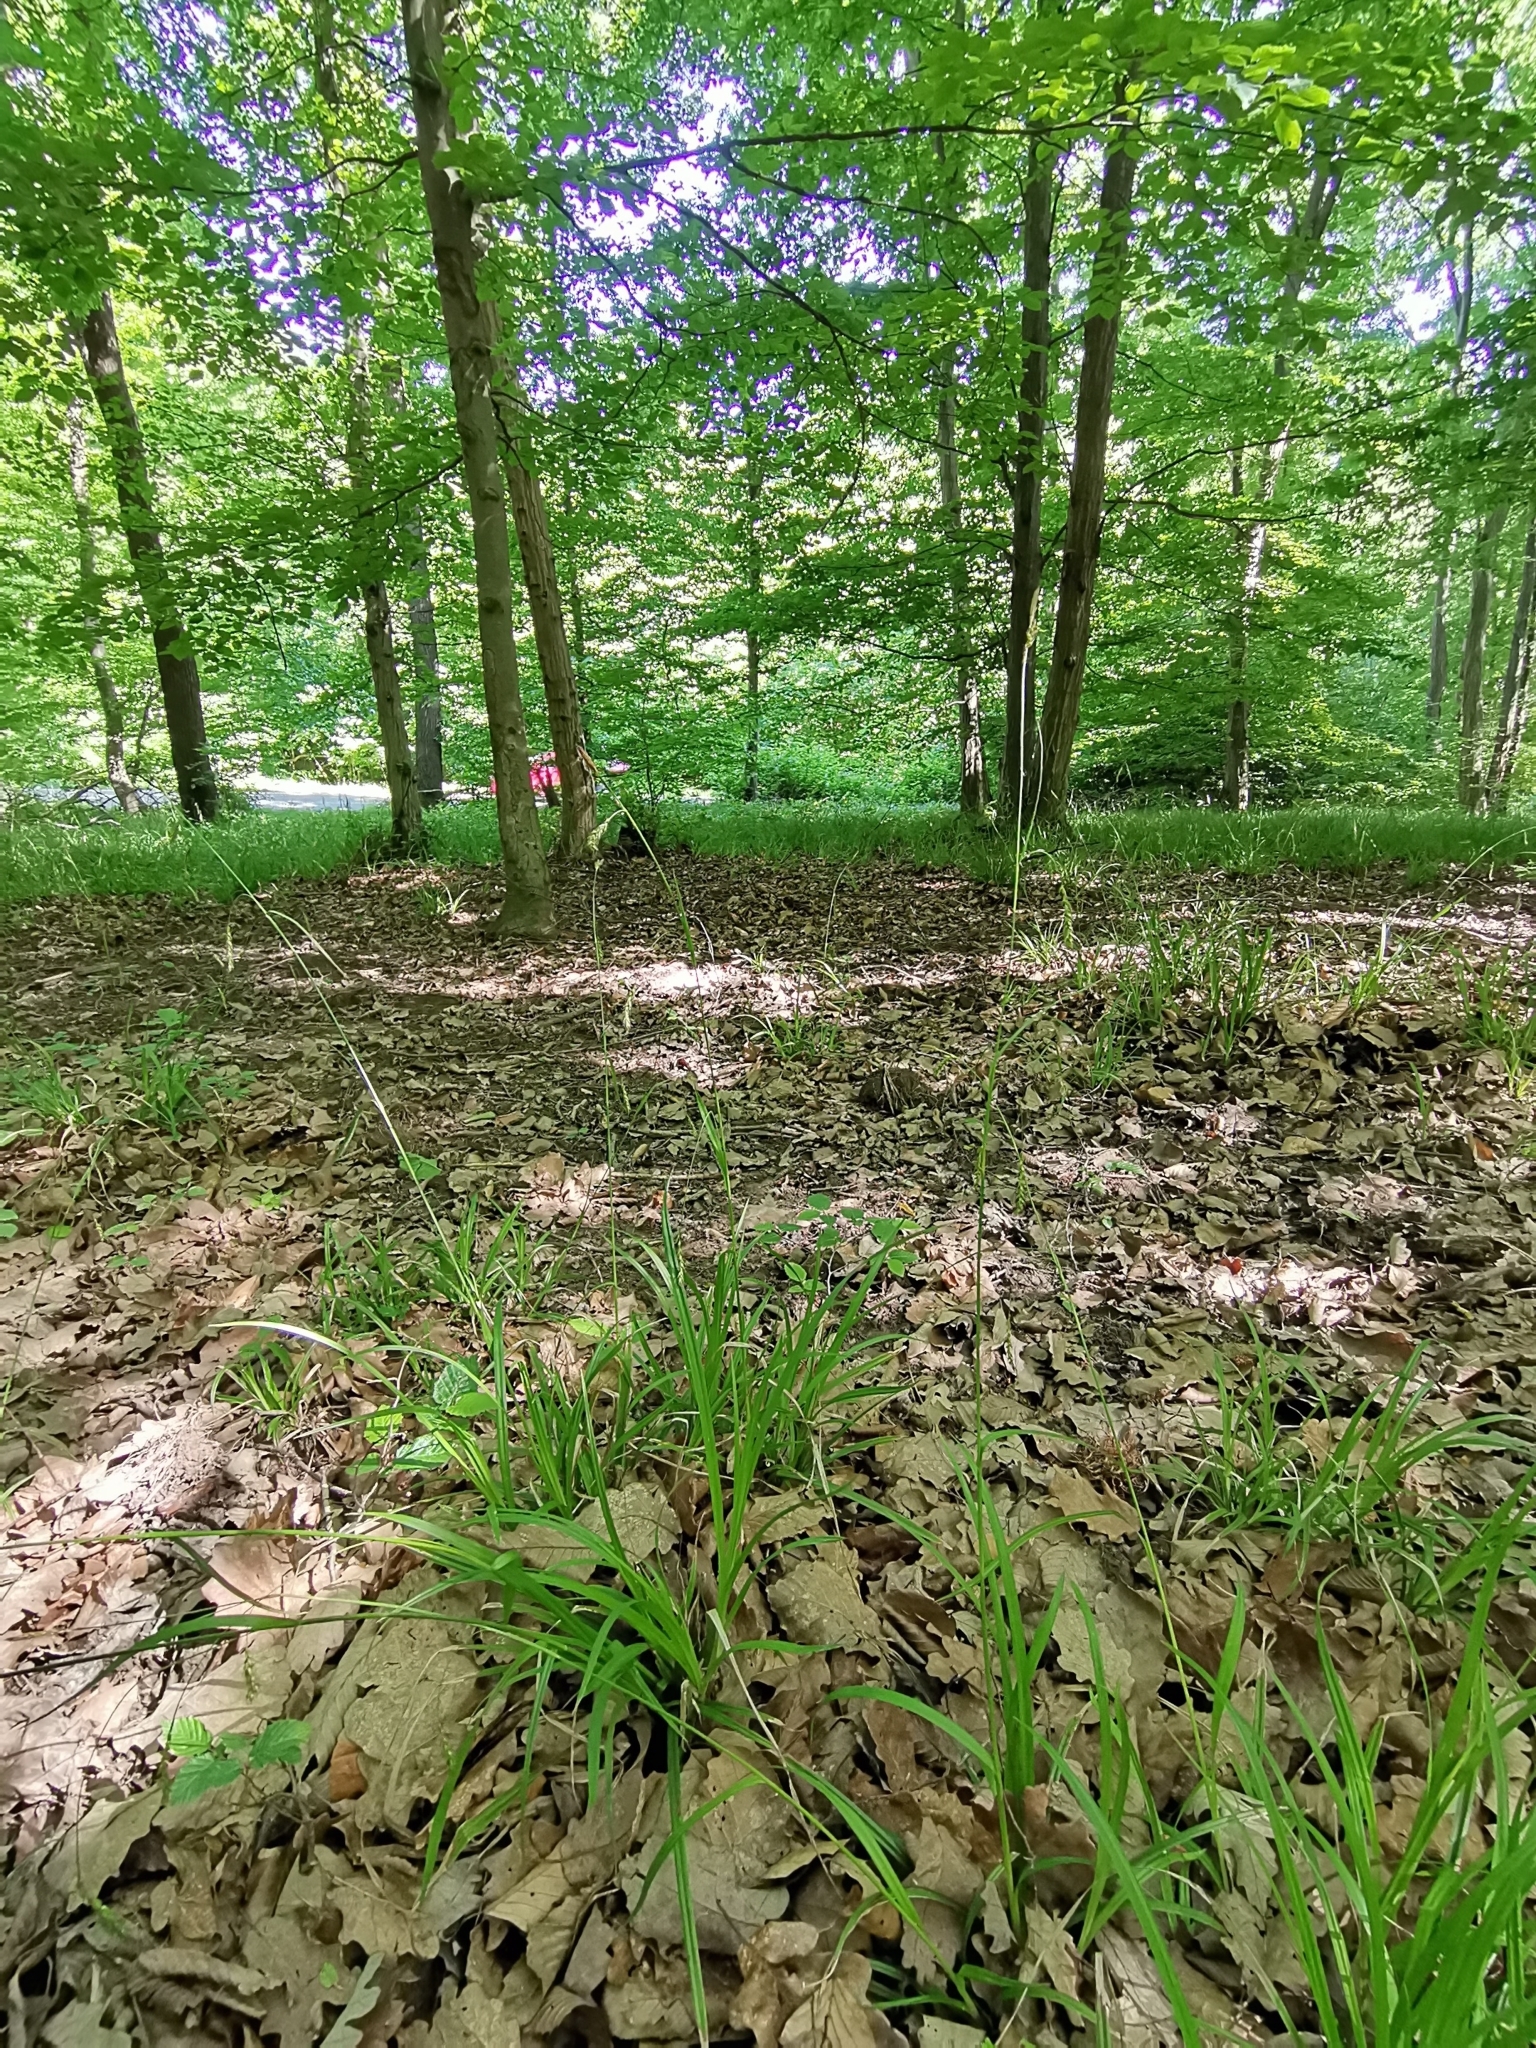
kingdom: Plantae
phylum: Tracheophyta
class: Liliopsida
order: Poales
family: Cyperaceae
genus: Carex
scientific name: Carex sylvatica
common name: Wood-sedge
